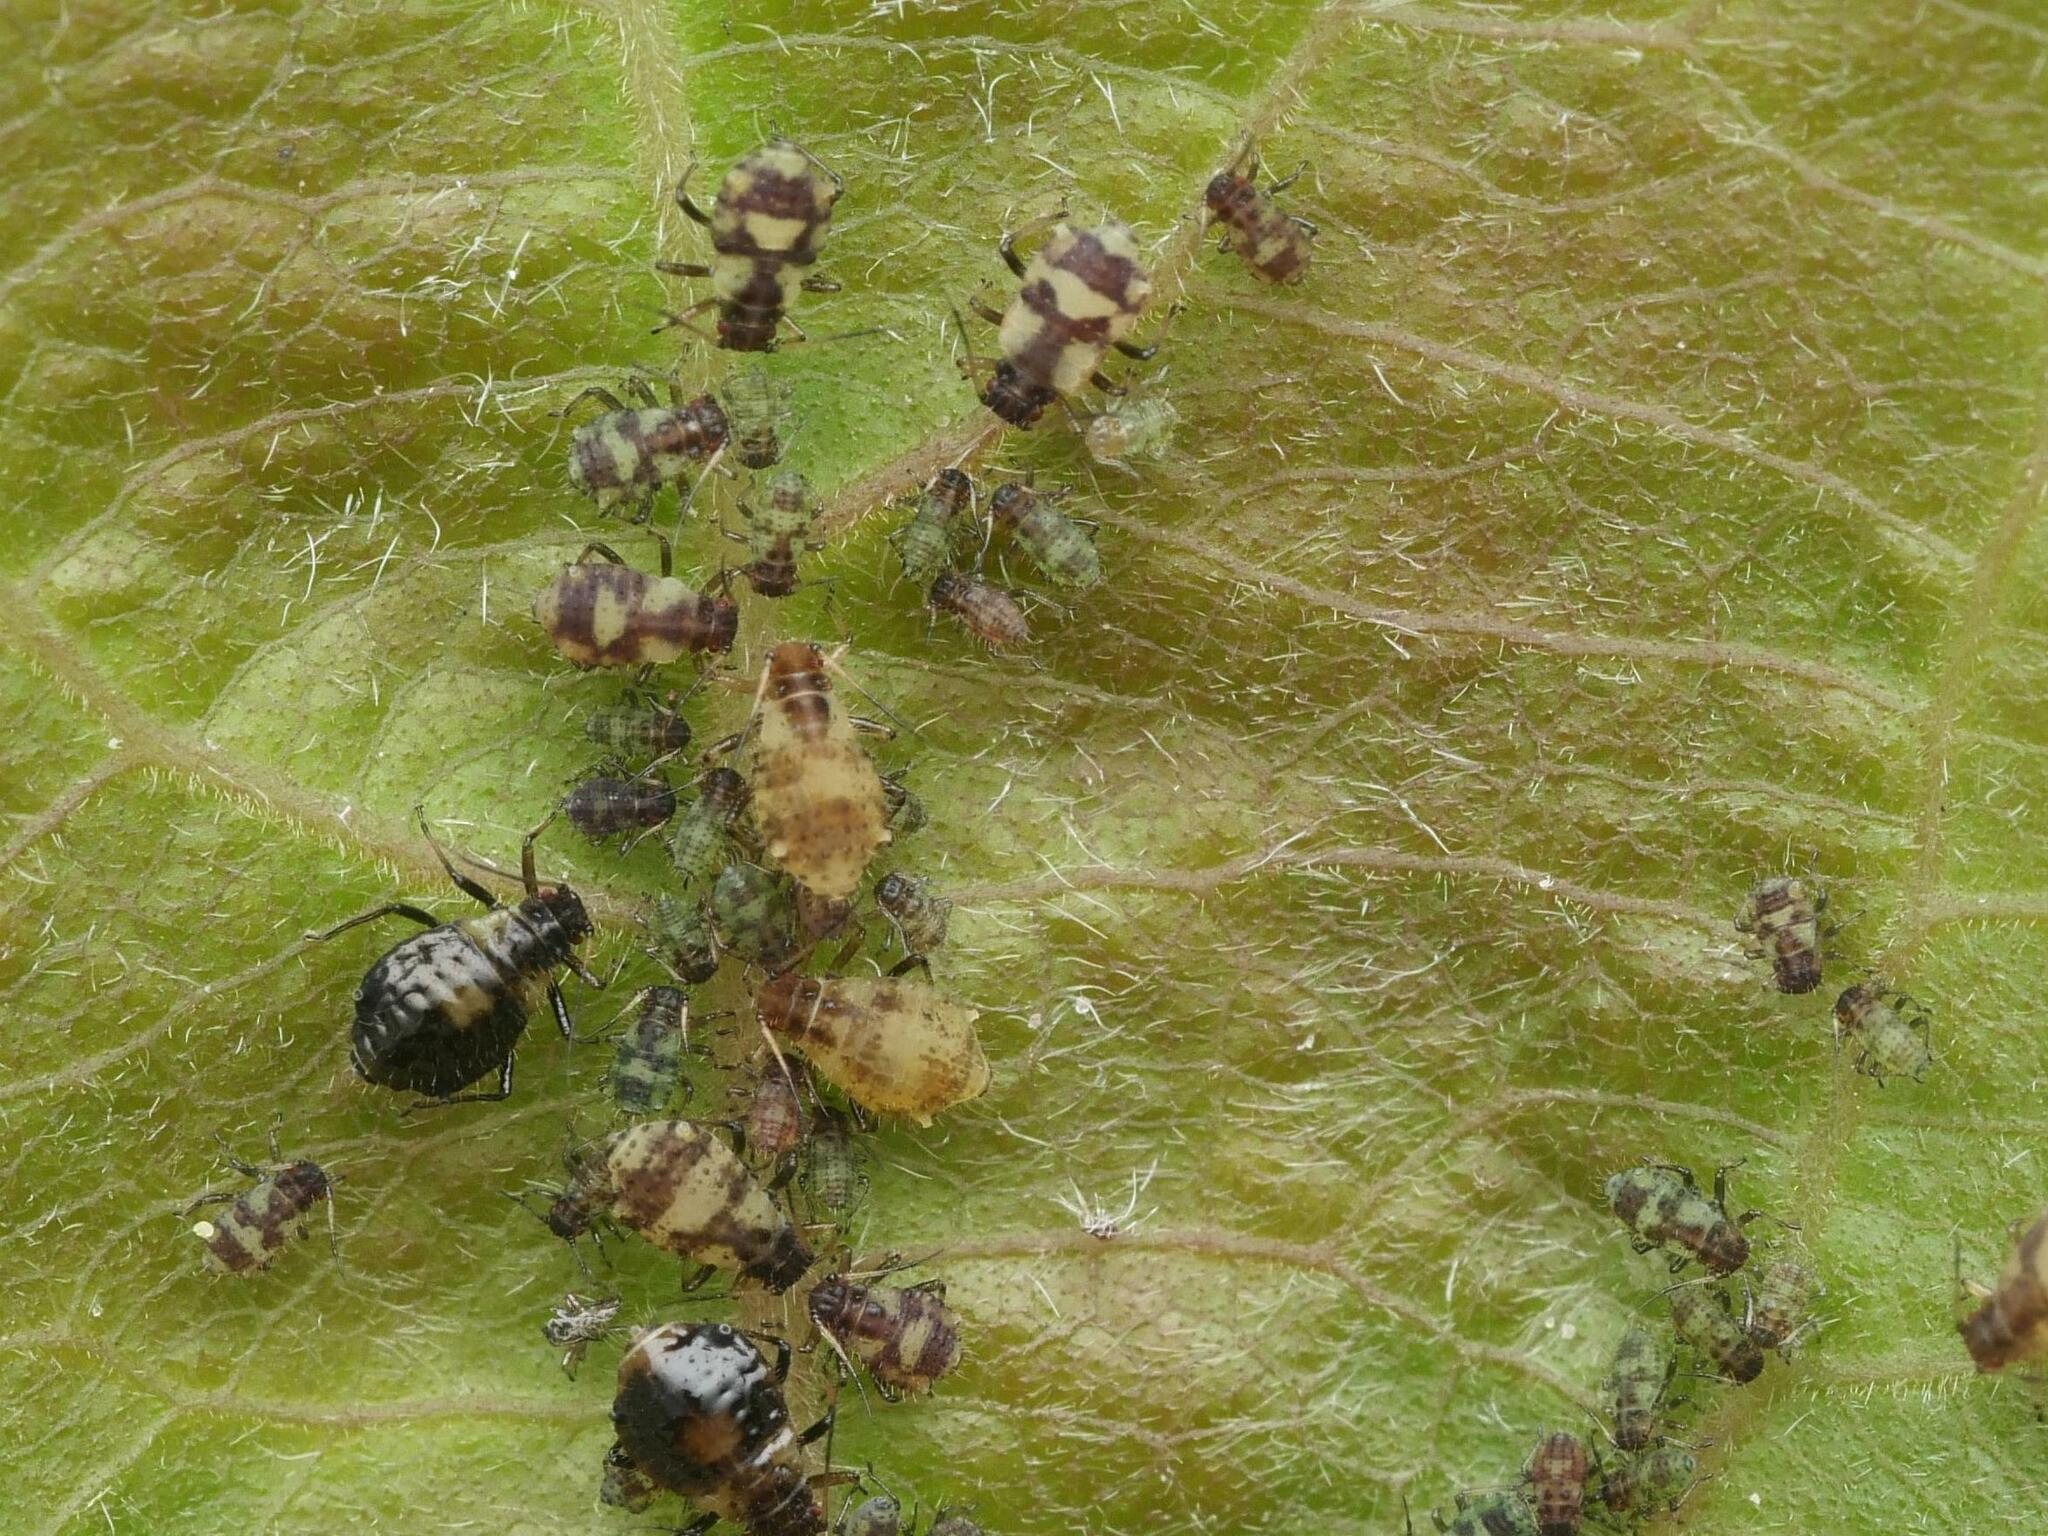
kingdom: Animalia
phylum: Arthropoda
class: Insecta
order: Hemiptera
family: Aphididae
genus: Chaitophorus
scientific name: Chaitophorus populeti
